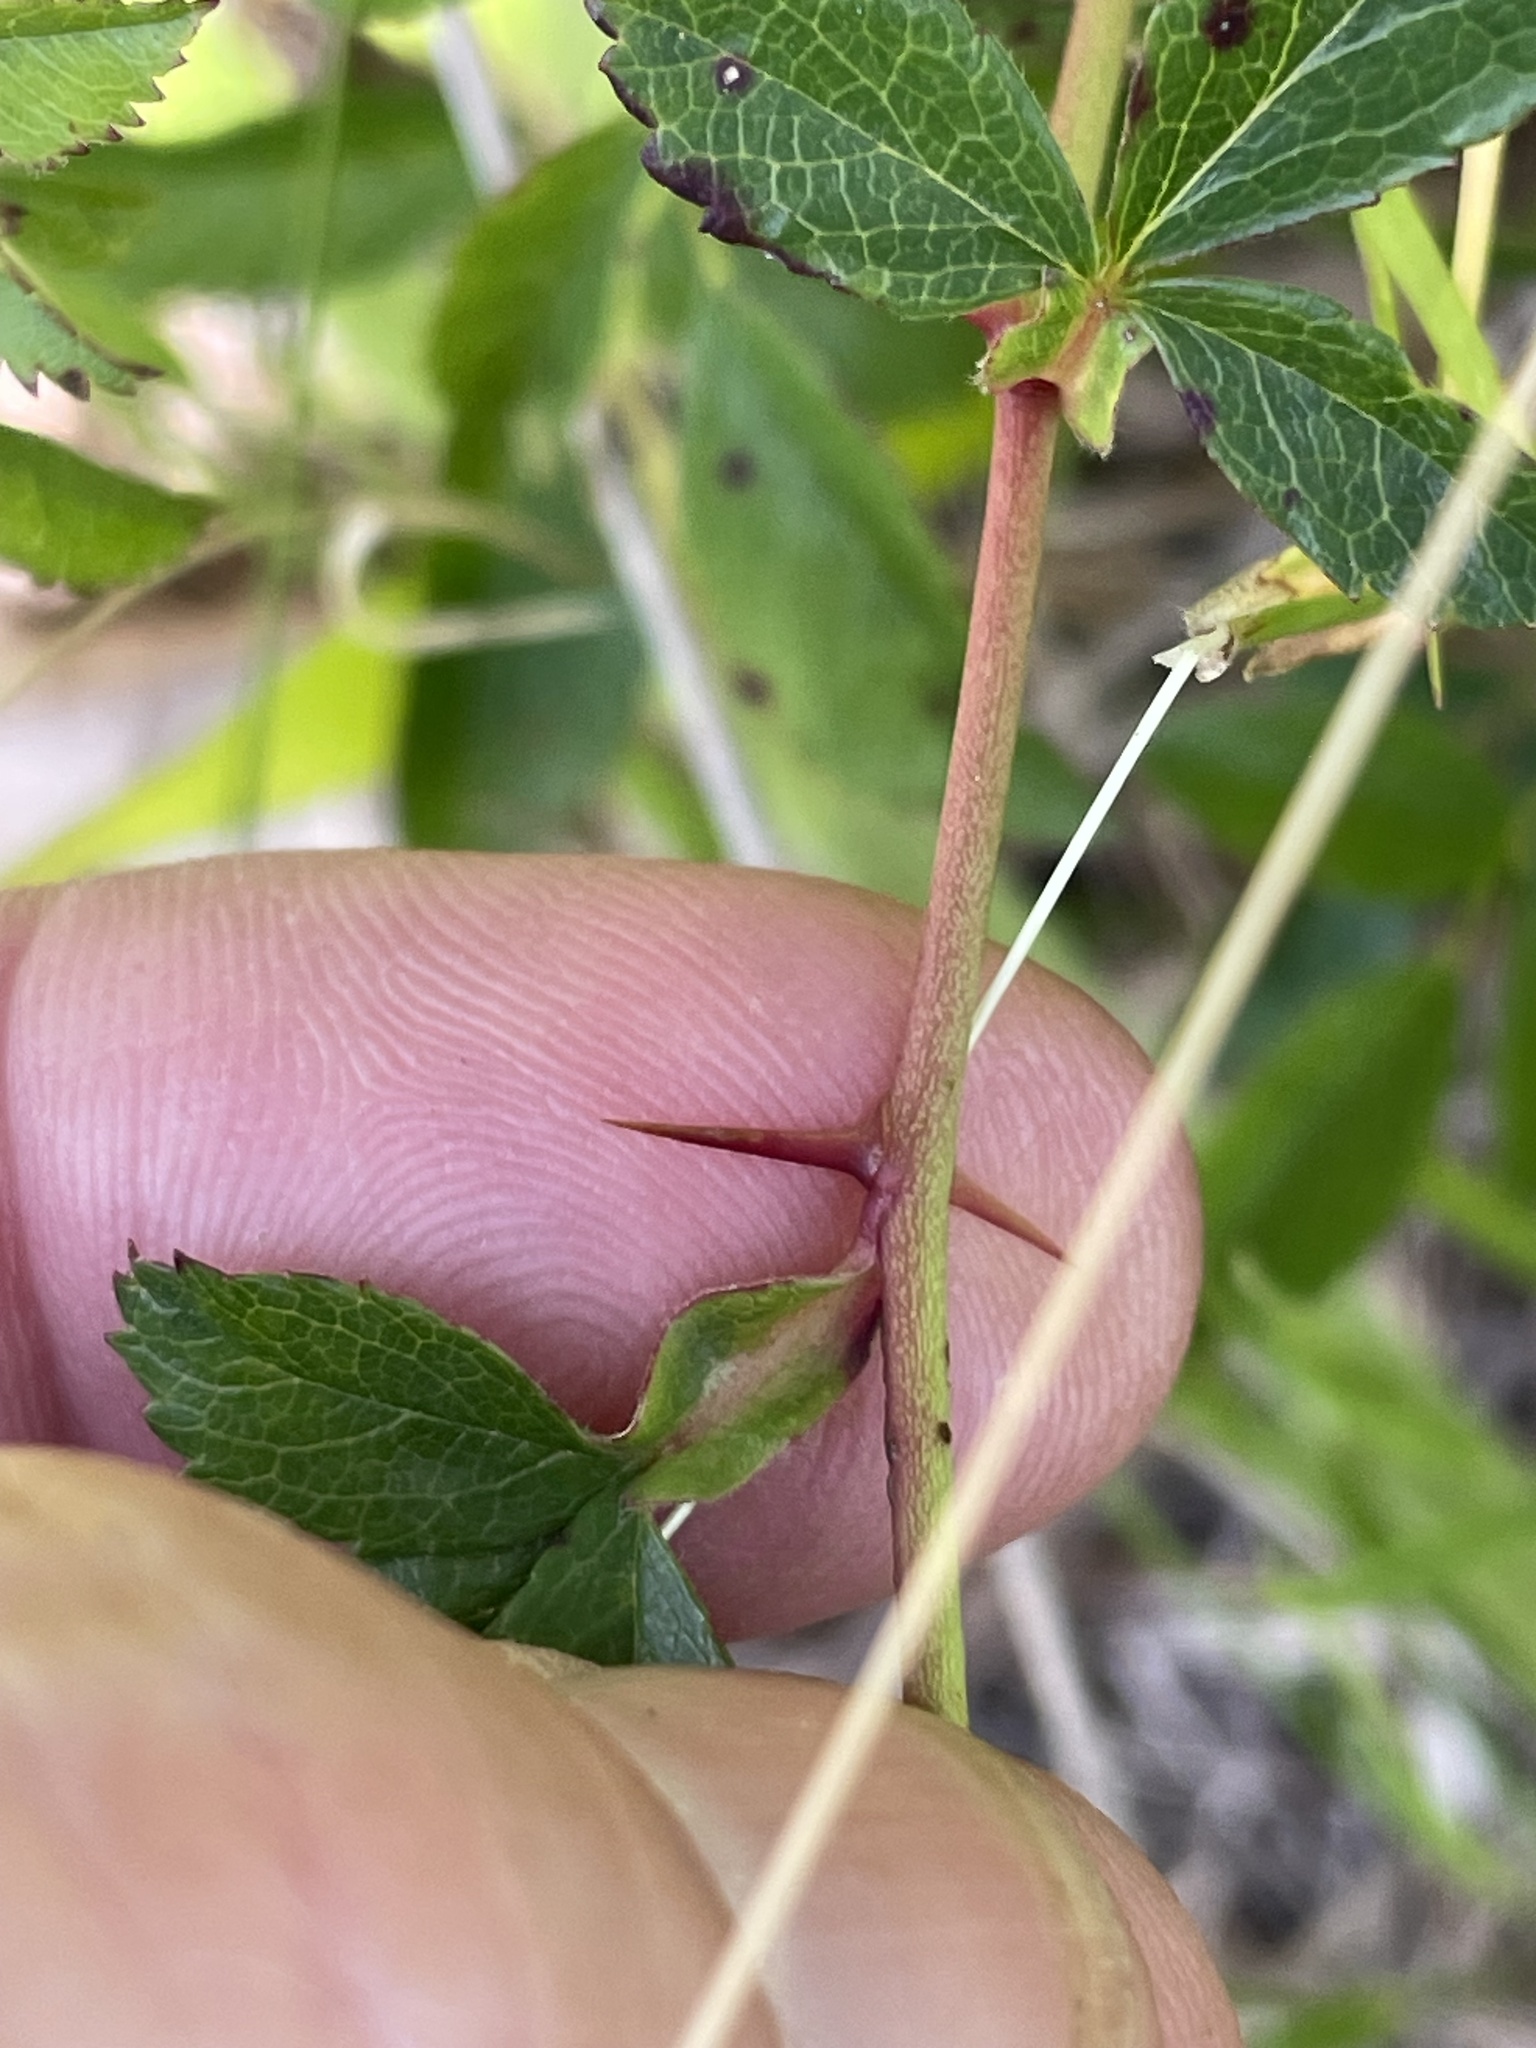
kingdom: Plantae
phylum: Tracheophyta
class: Magnoliopsida
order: Rosales
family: Rosaceae
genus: Rosa
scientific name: Rosa carolina
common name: Pasture rose
